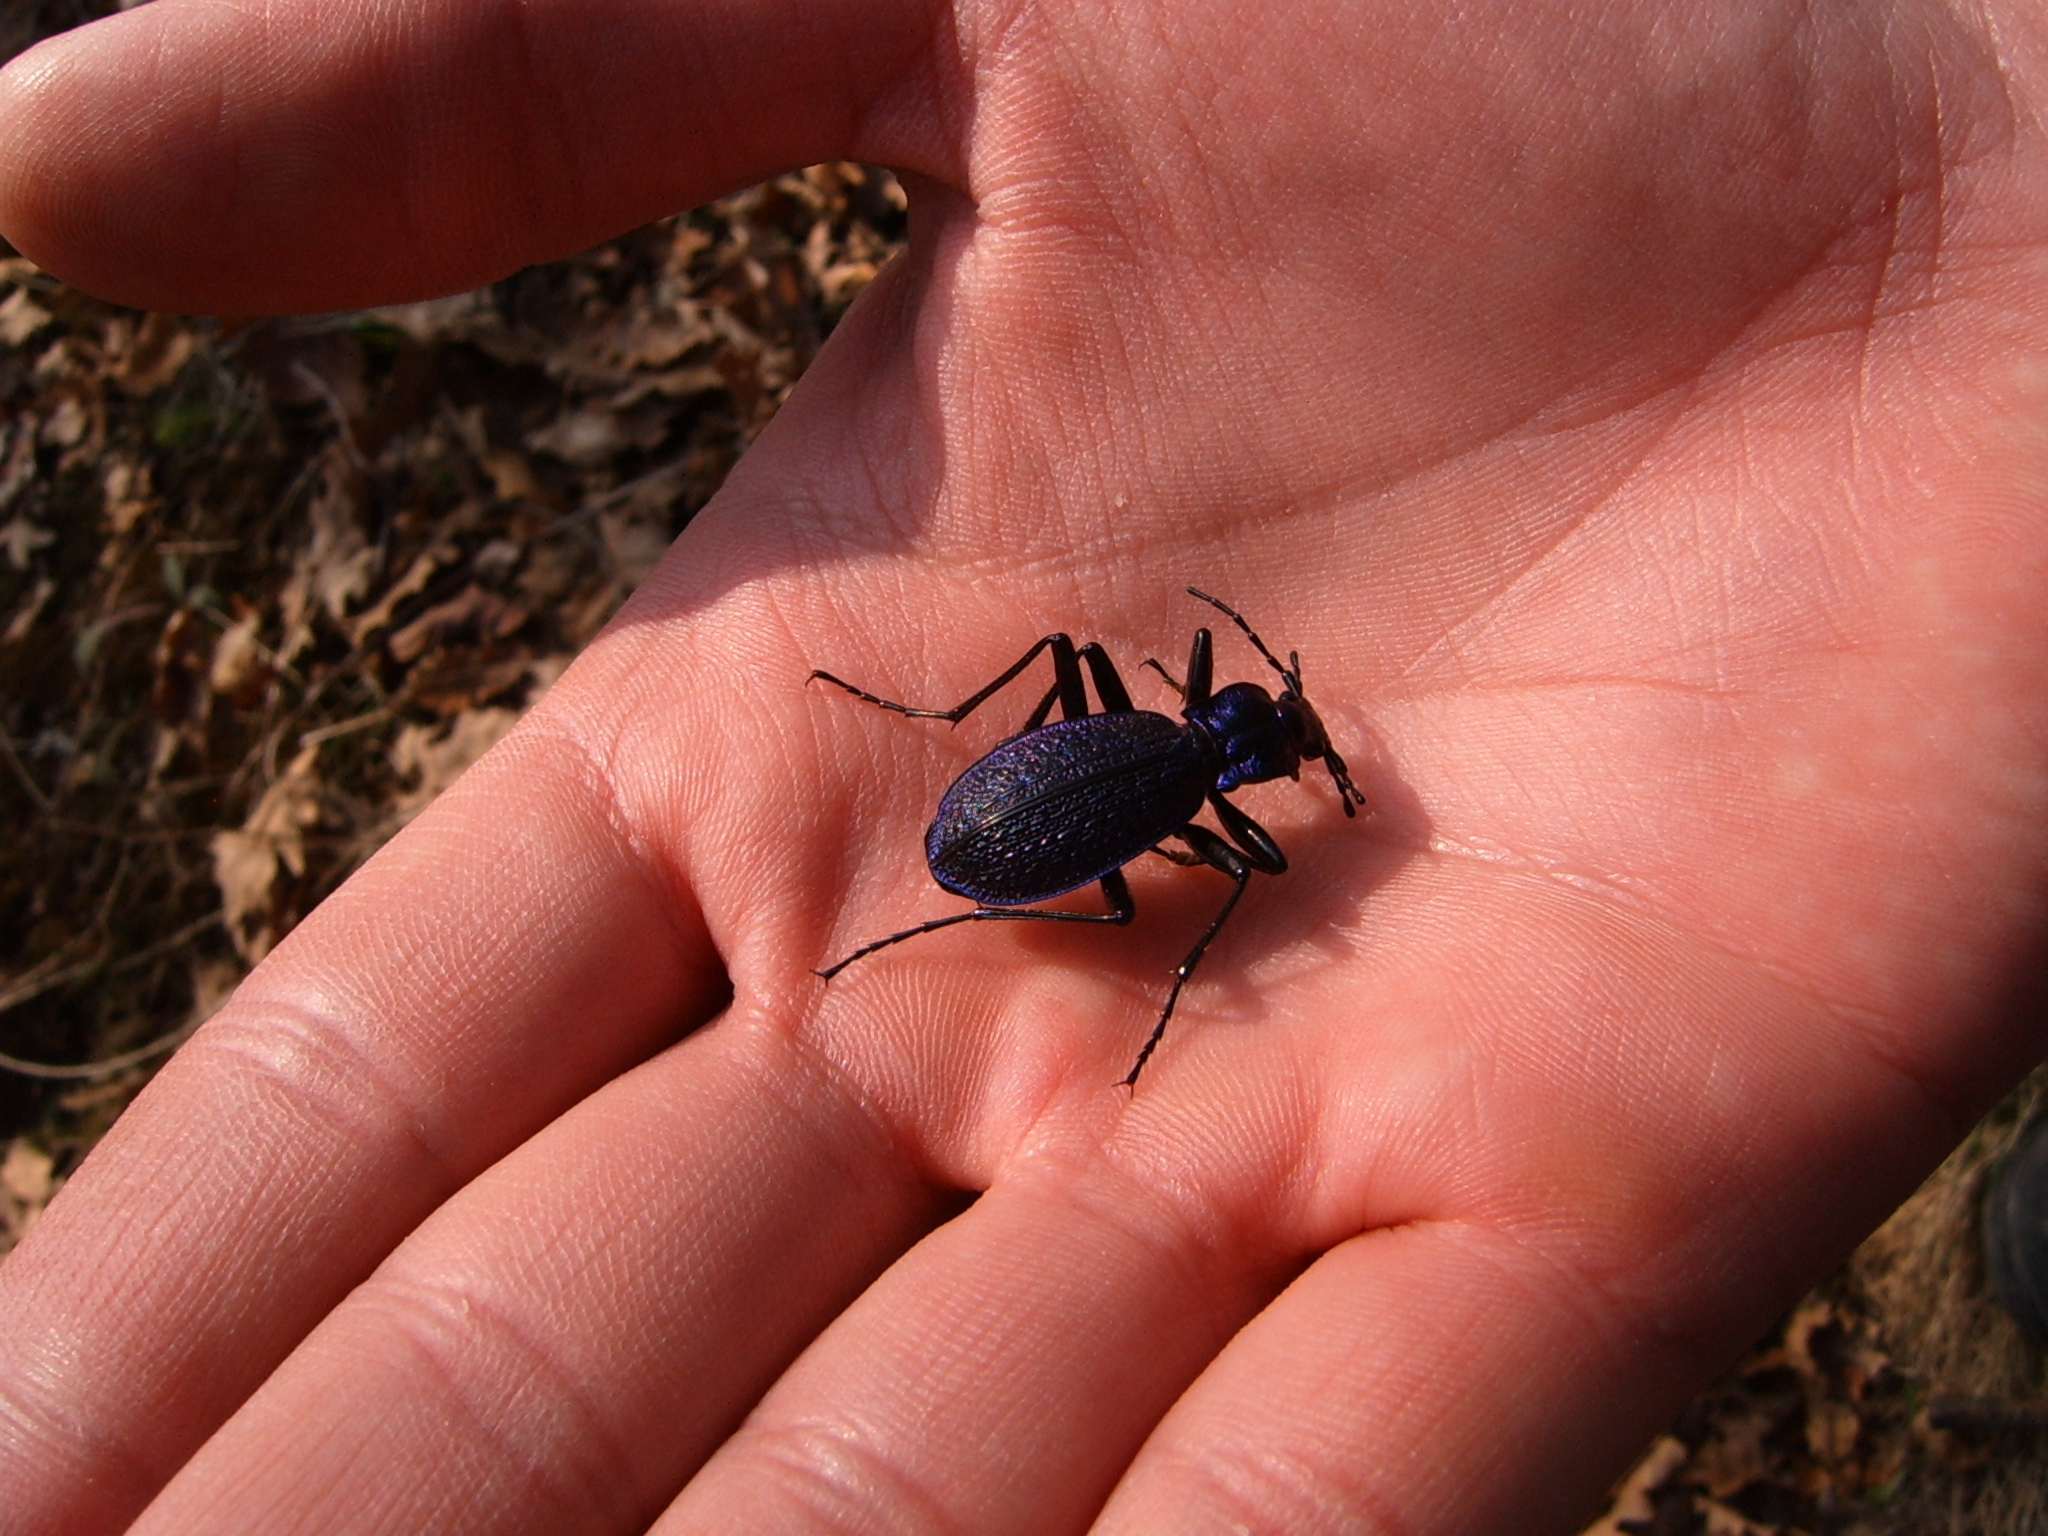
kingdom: Animalia
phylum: Arthropoda
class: Insecta
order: Coleoptera
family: Carabidae
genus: Carabus
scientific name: Carabus intricatus
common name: Blue ground beetle
